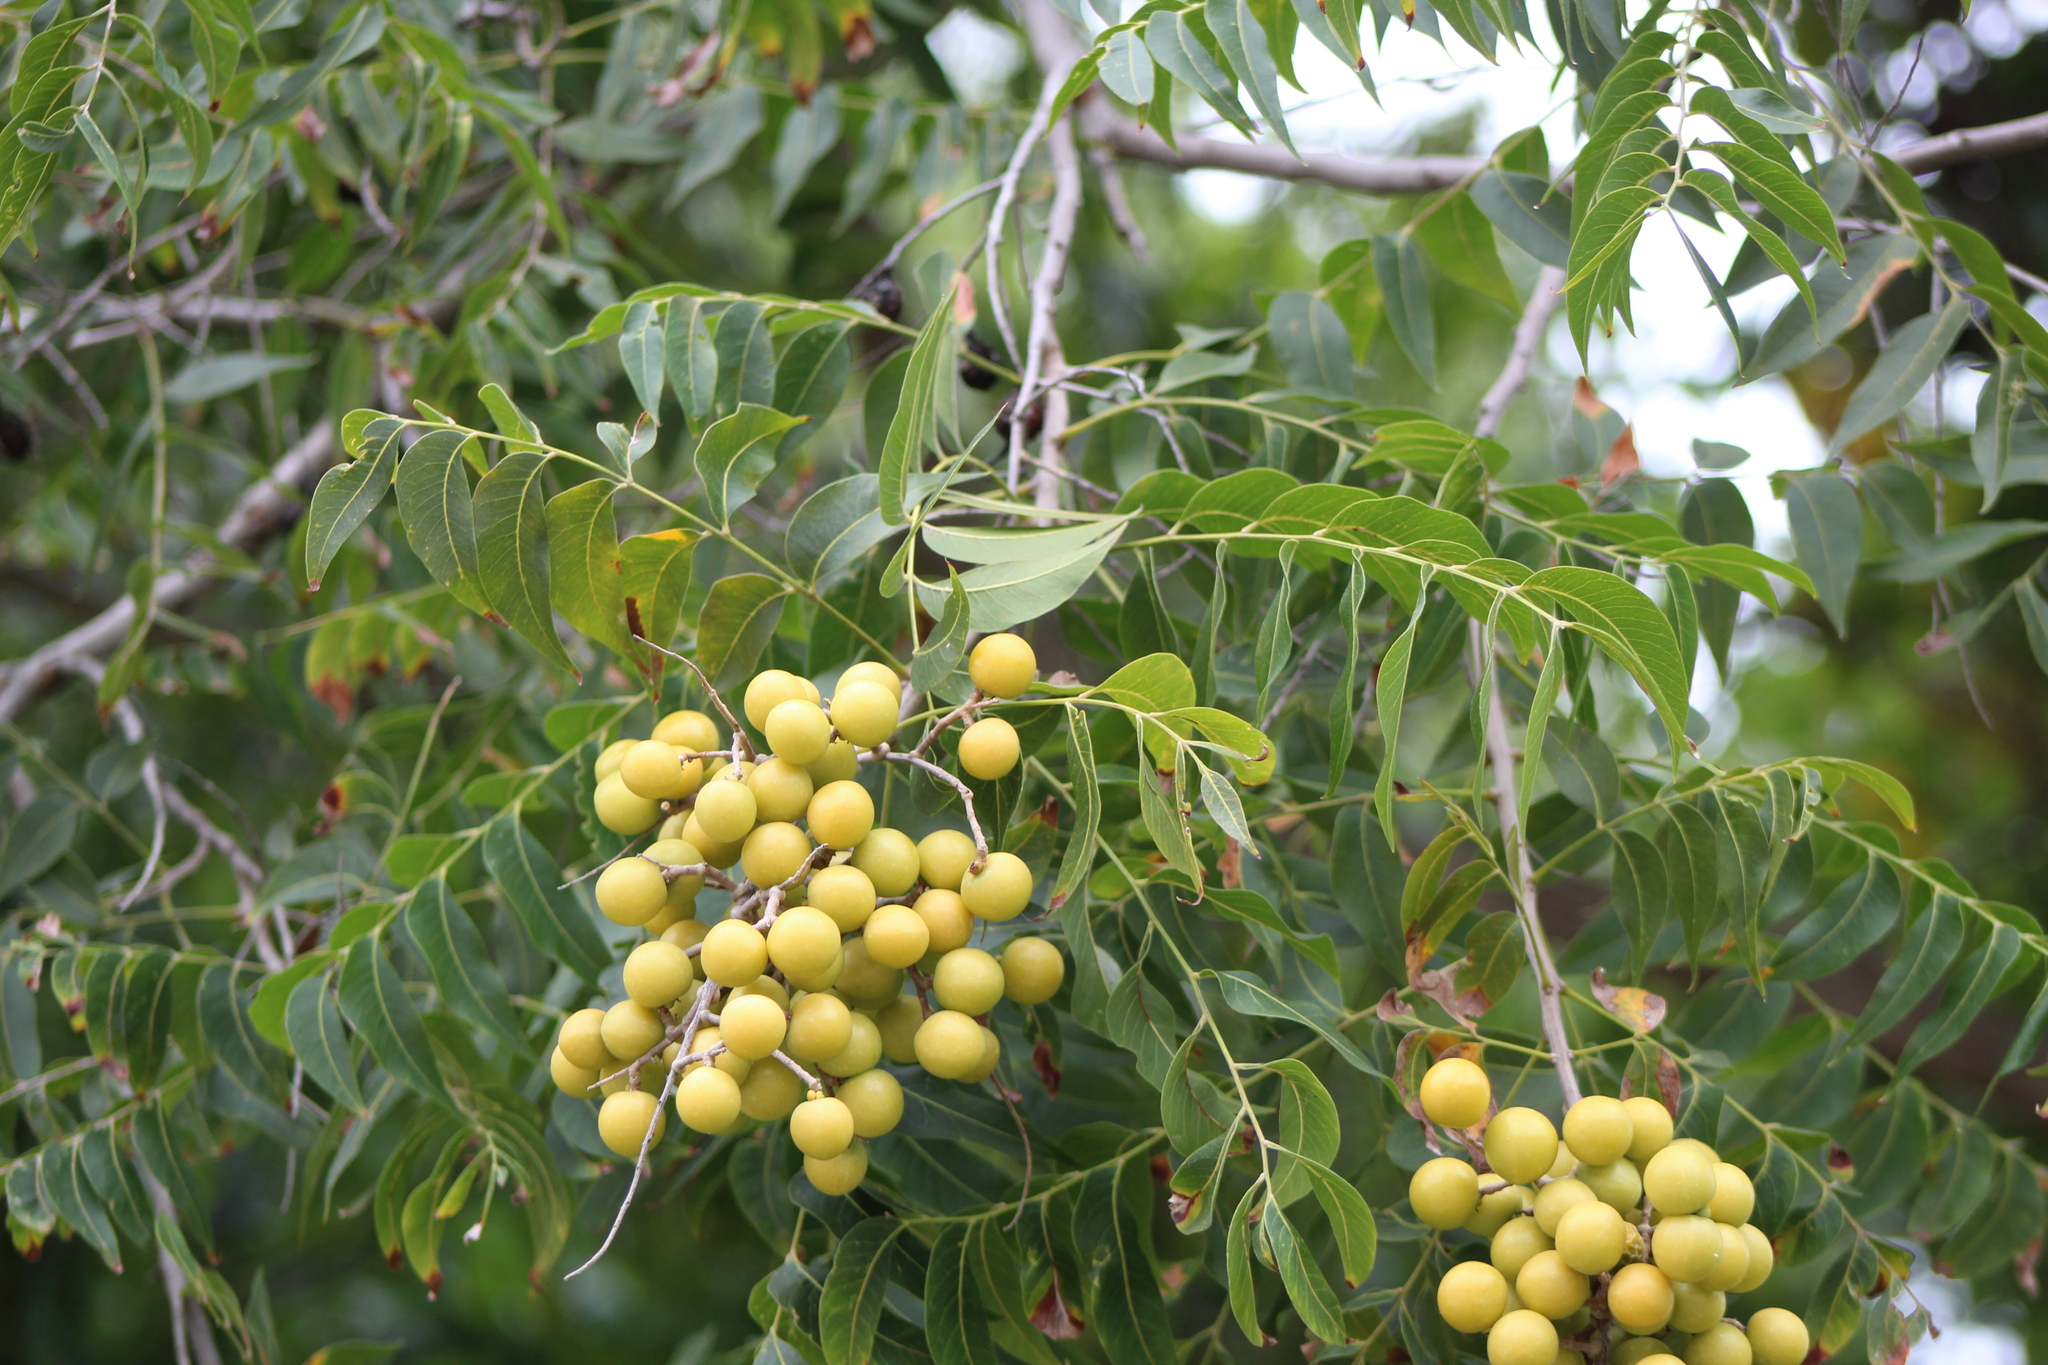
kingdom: Plantae
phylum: Tracheophyta
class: Magnoliopsida
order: Sapindales
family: Sapindaceae
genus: Sapindus
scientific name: Sapindus drummondii
